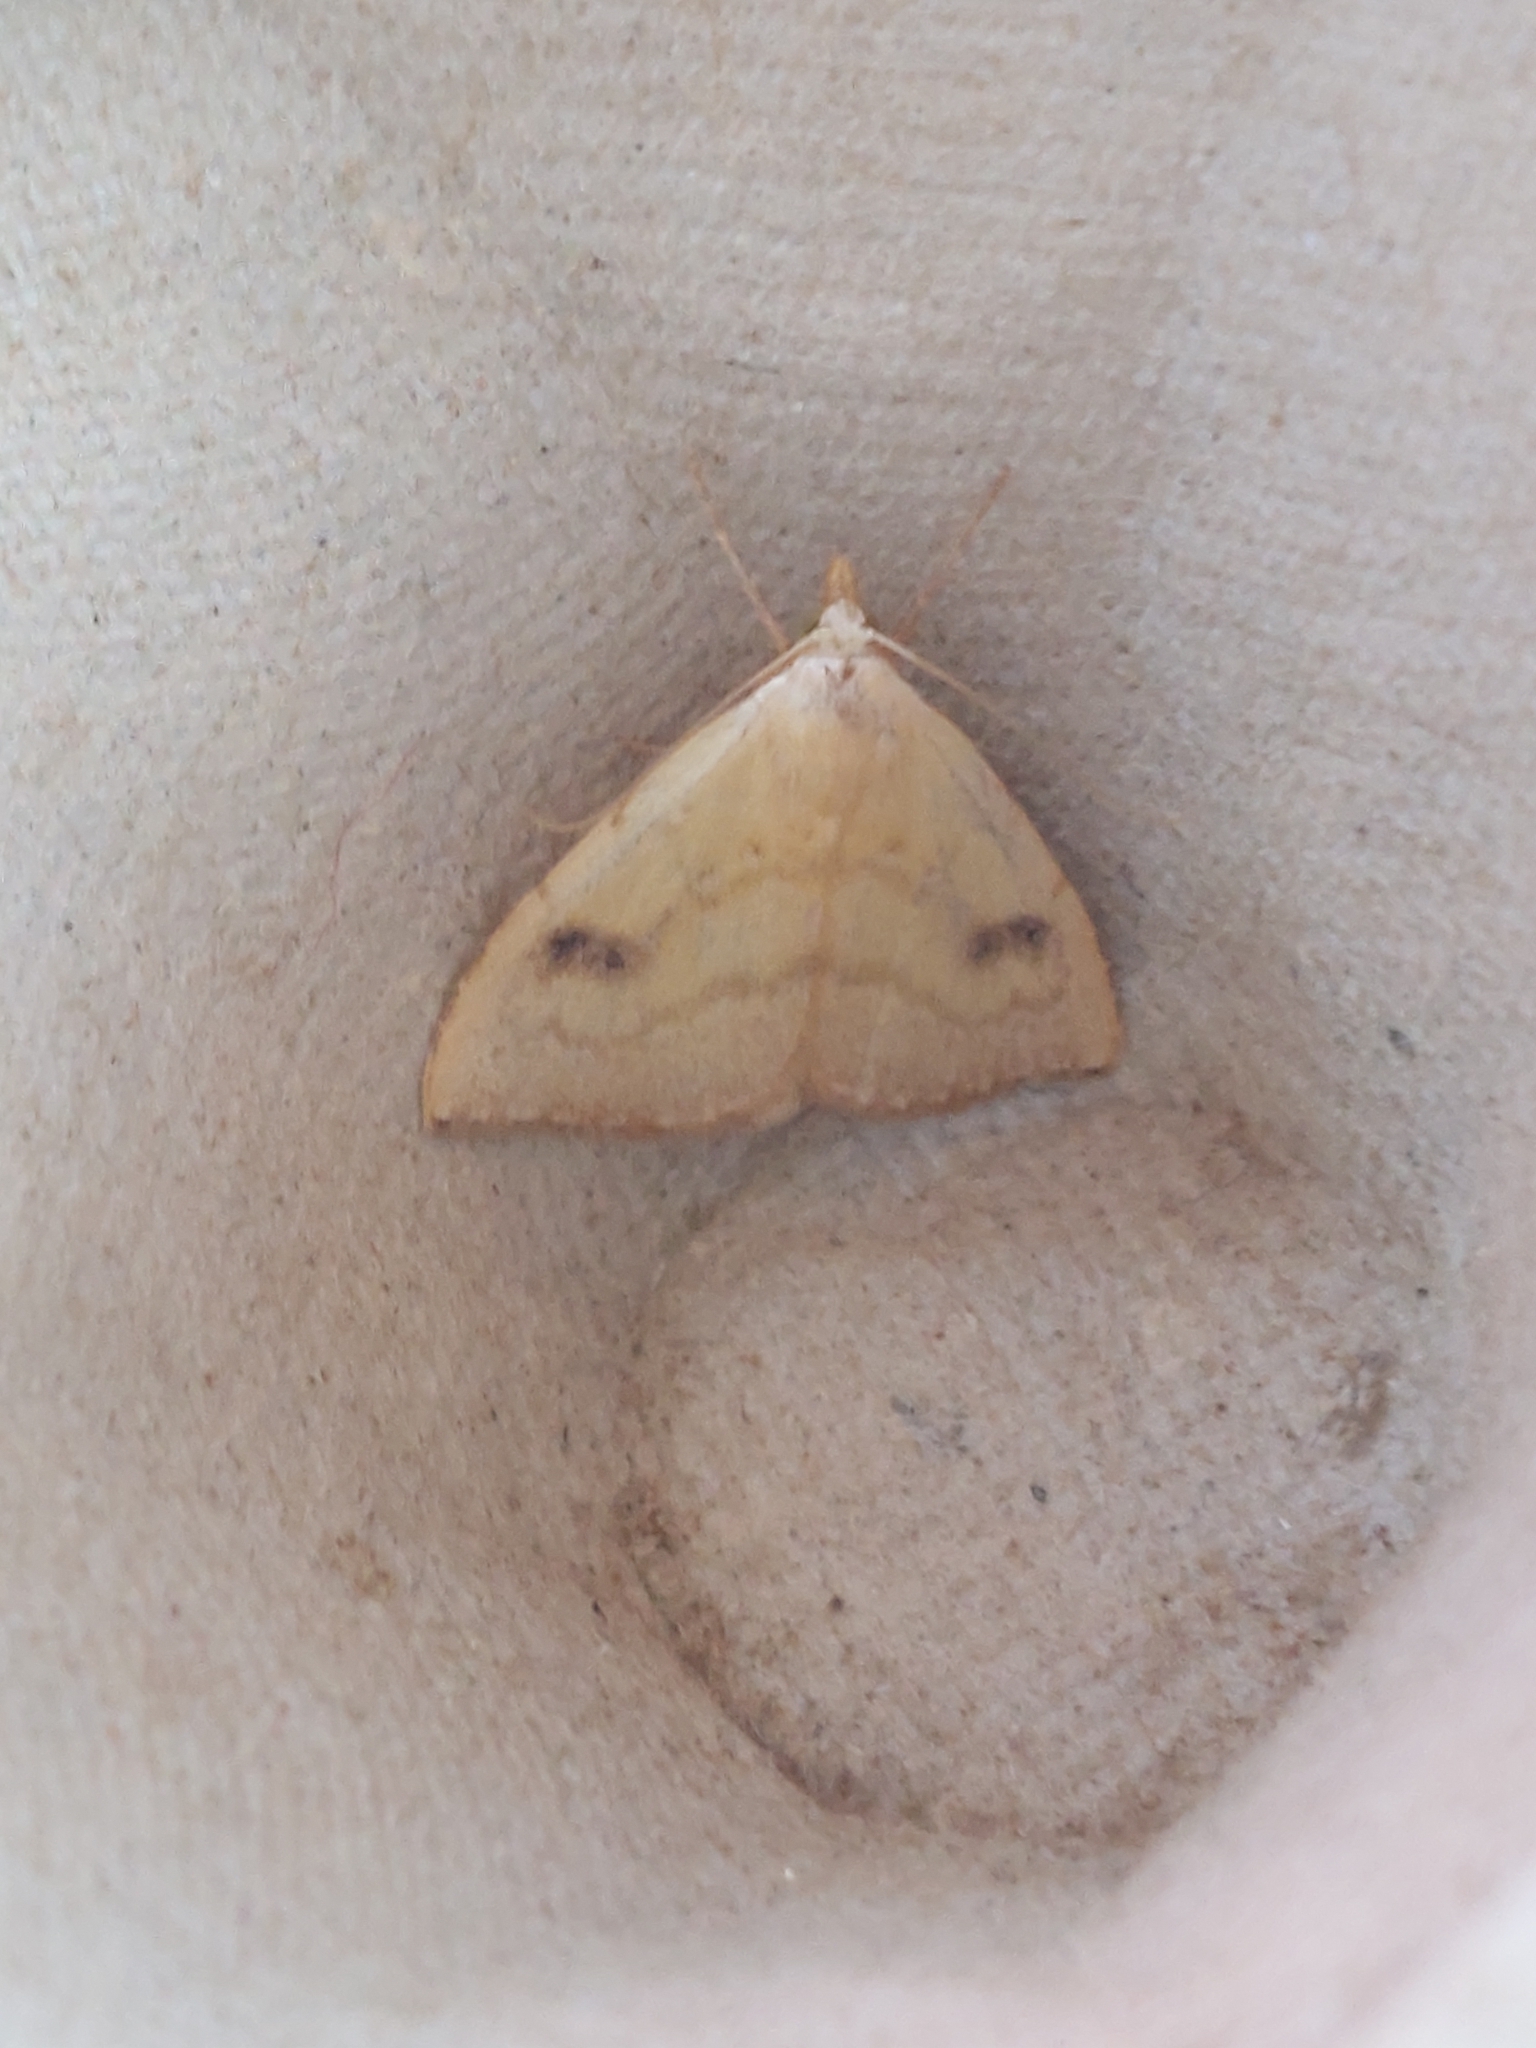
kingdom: Animalia
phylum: Arthropoda
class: Insecta
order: Lepidoptera
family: Erebidae
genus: Rivula
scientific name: Rivula sericealis
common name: Straw dot
